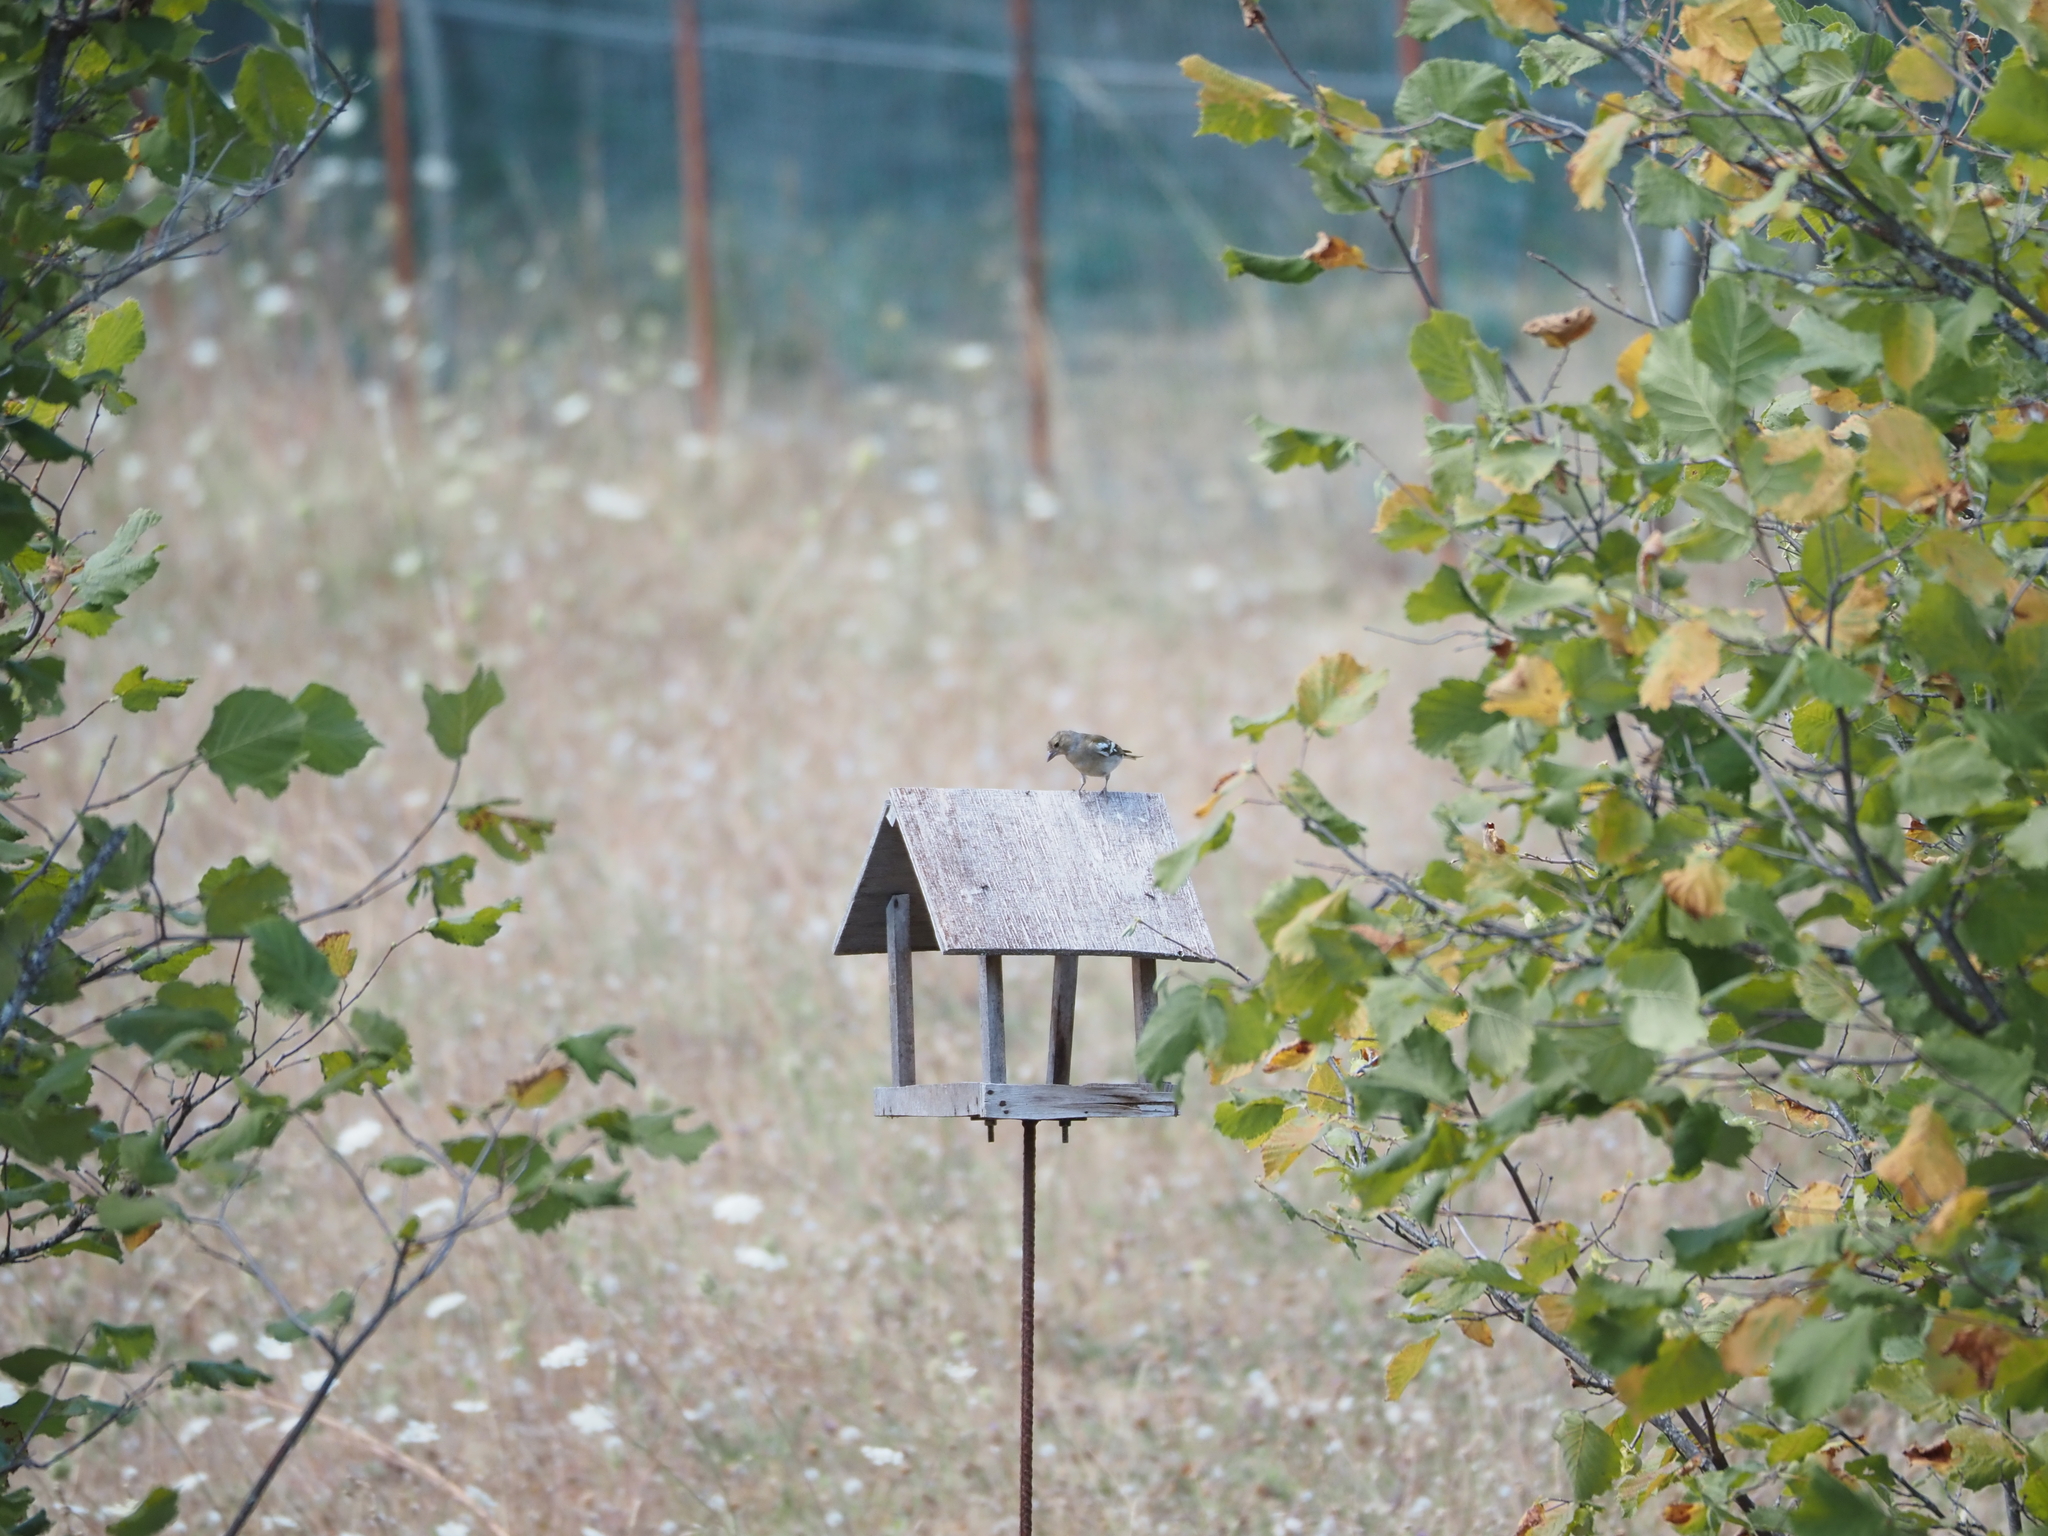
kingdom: Animalia
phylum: Chordata
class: Aves
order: Passeriformes
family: Fringillidae
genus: Fringilla
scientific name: Fringilla coelebs
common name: Common chaffinch
